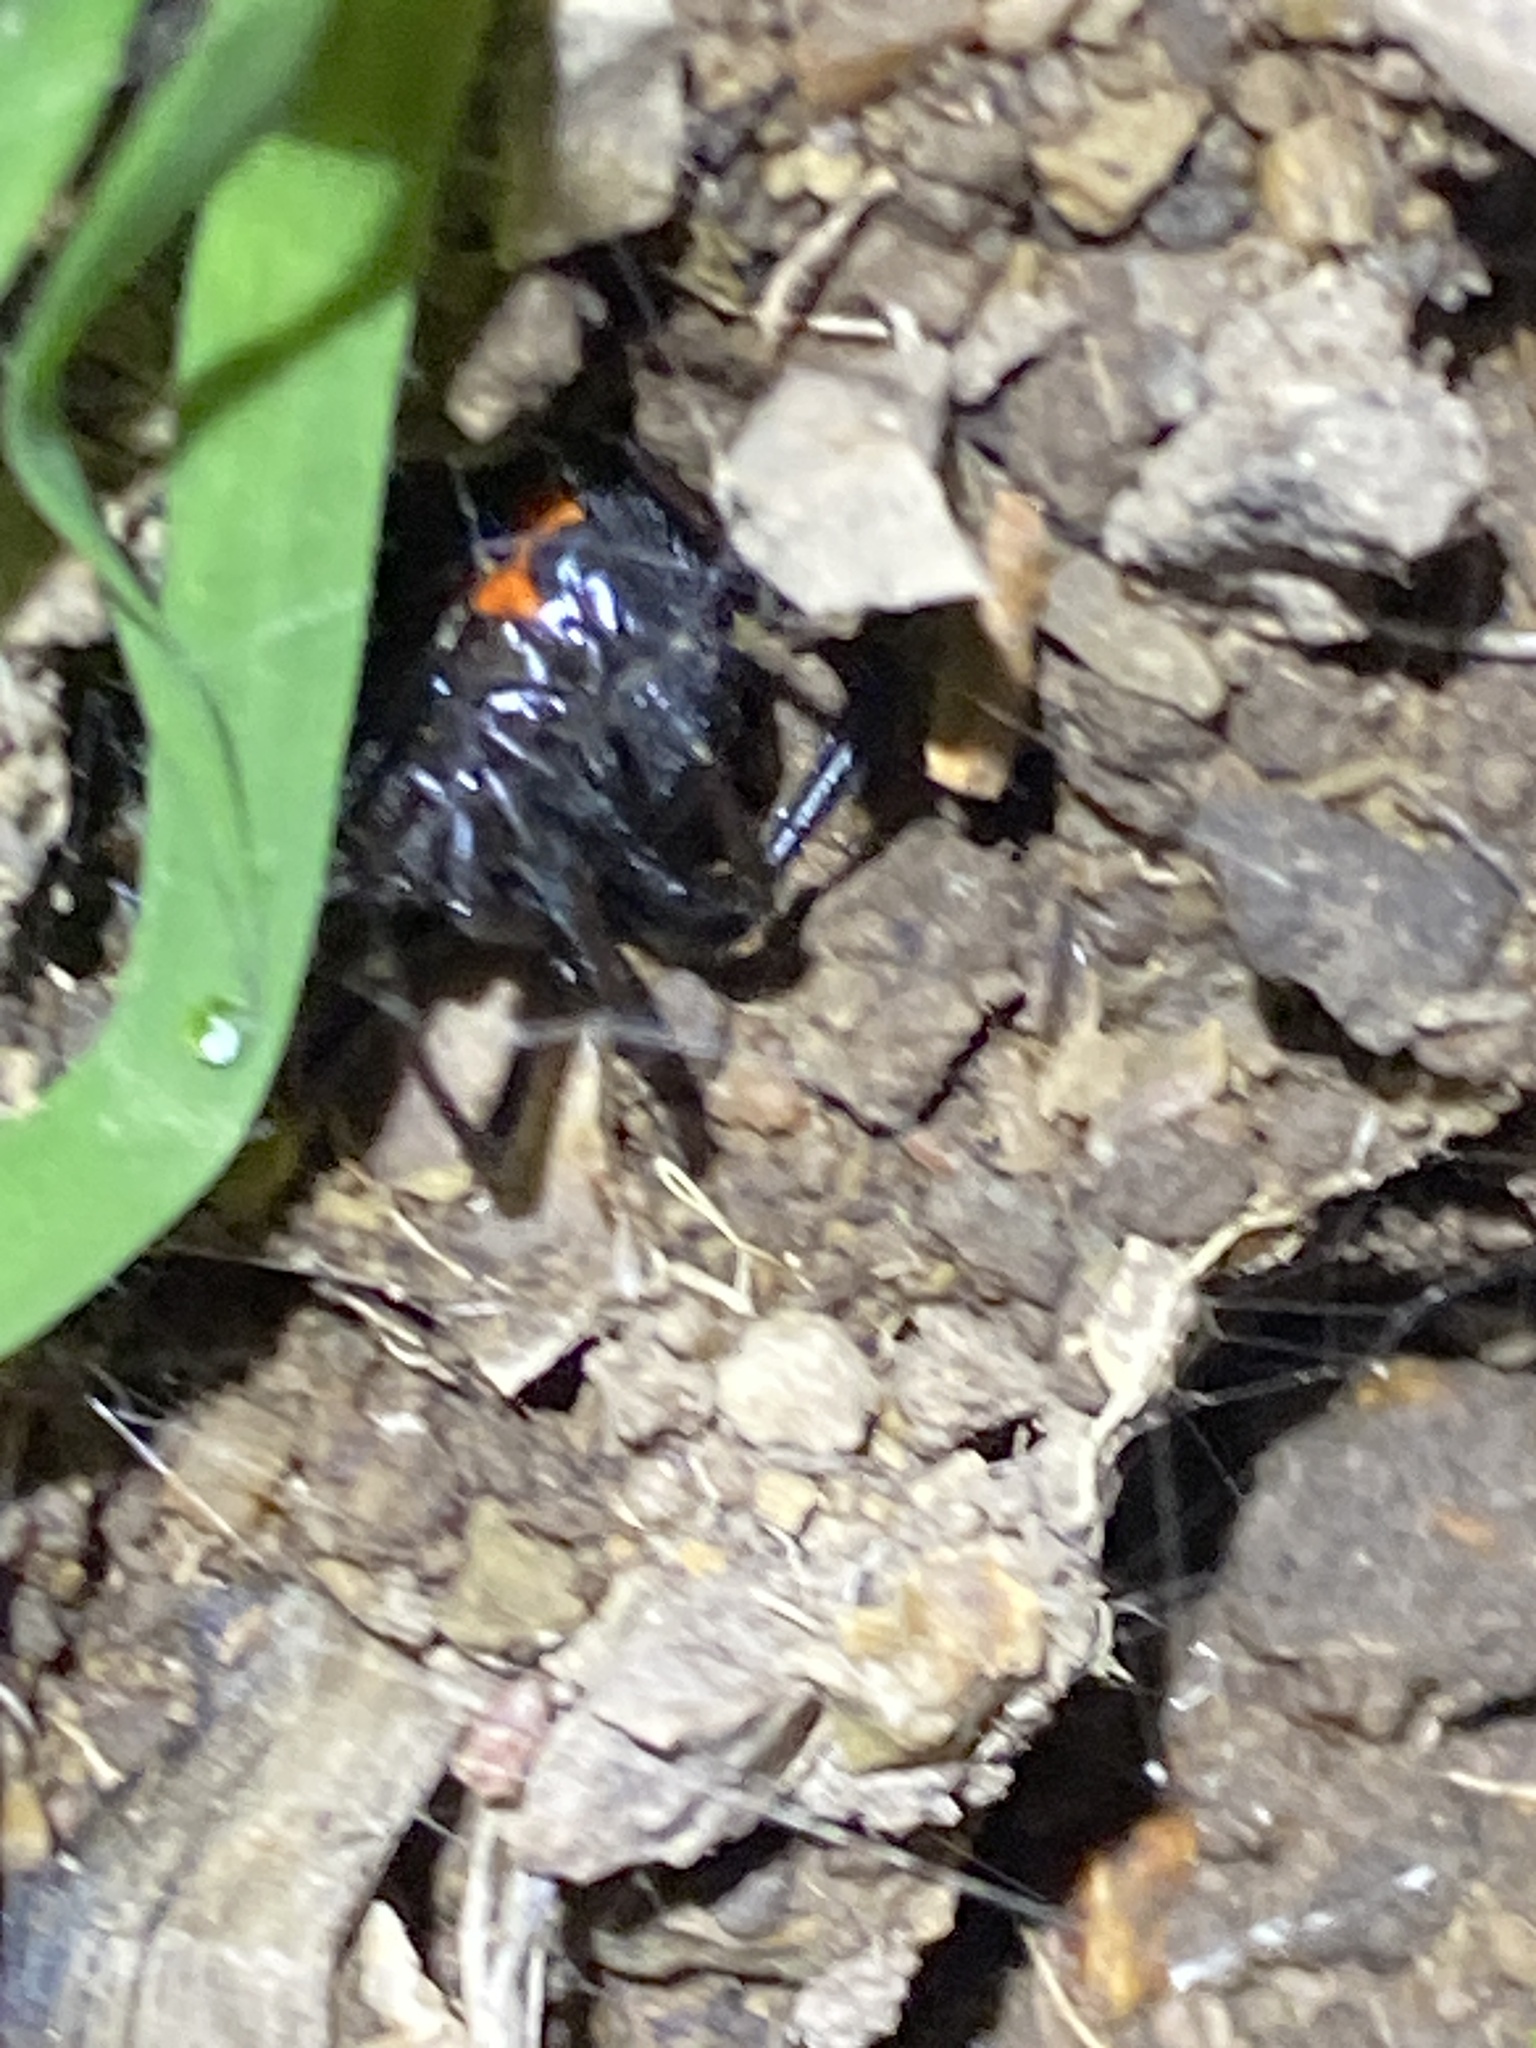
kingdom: Animalia
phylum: Arthropoda
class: Arachnida
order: Araneae
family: Theridiidae
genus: Latrodectus
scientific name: Latrodectus hesperus
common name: Western black widow
